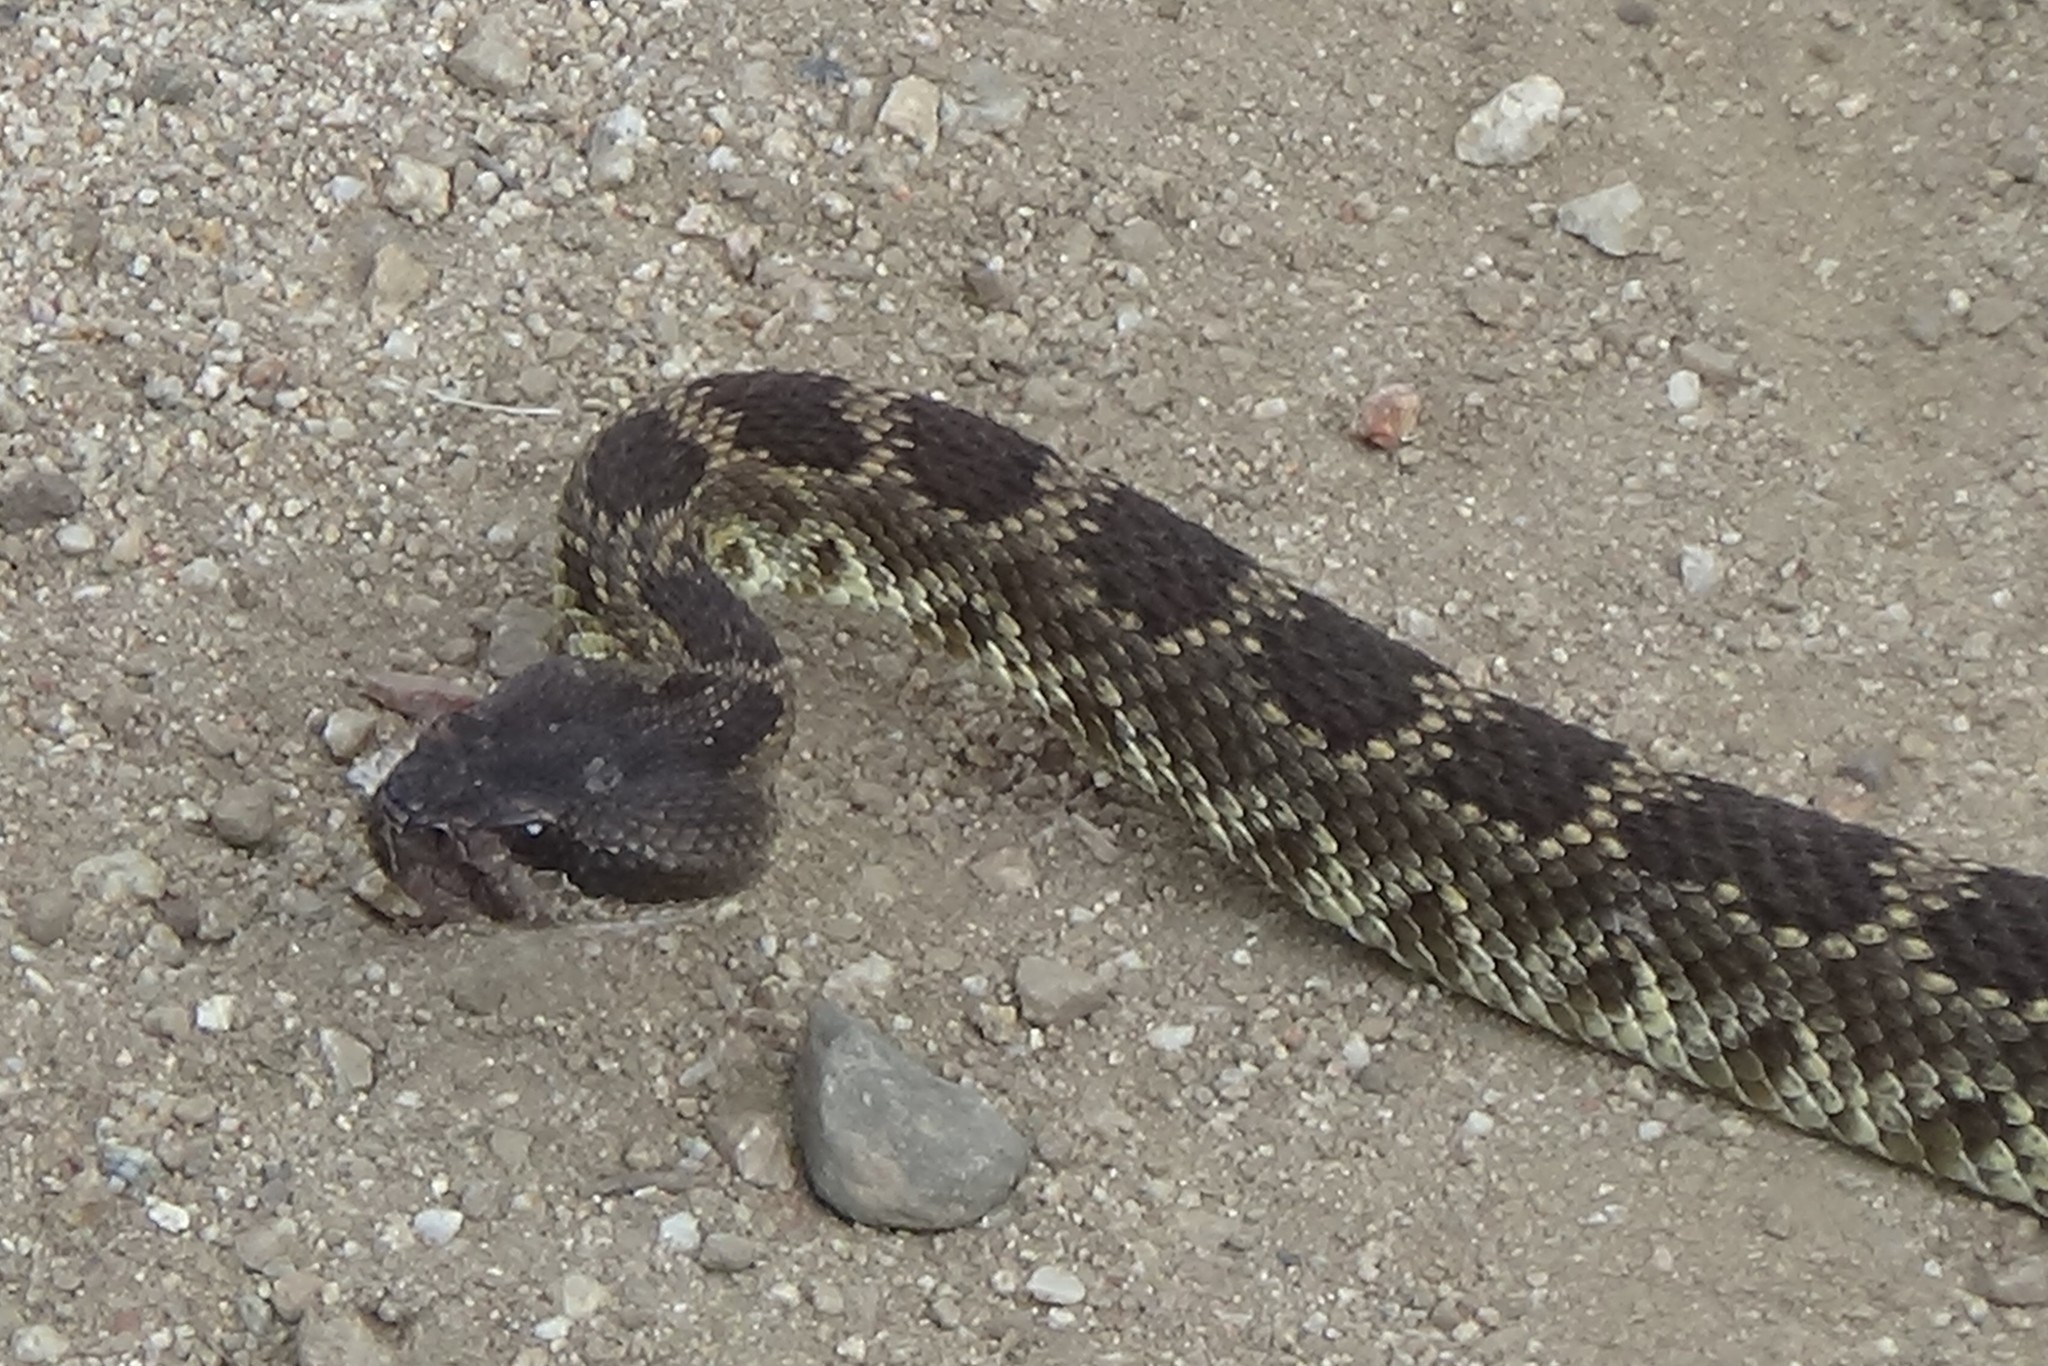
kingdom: Animalia
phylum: Chordata
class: Squamata
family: Viperidae
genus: Crotalus
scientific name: Crotalus oreganus
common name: Abyssus
